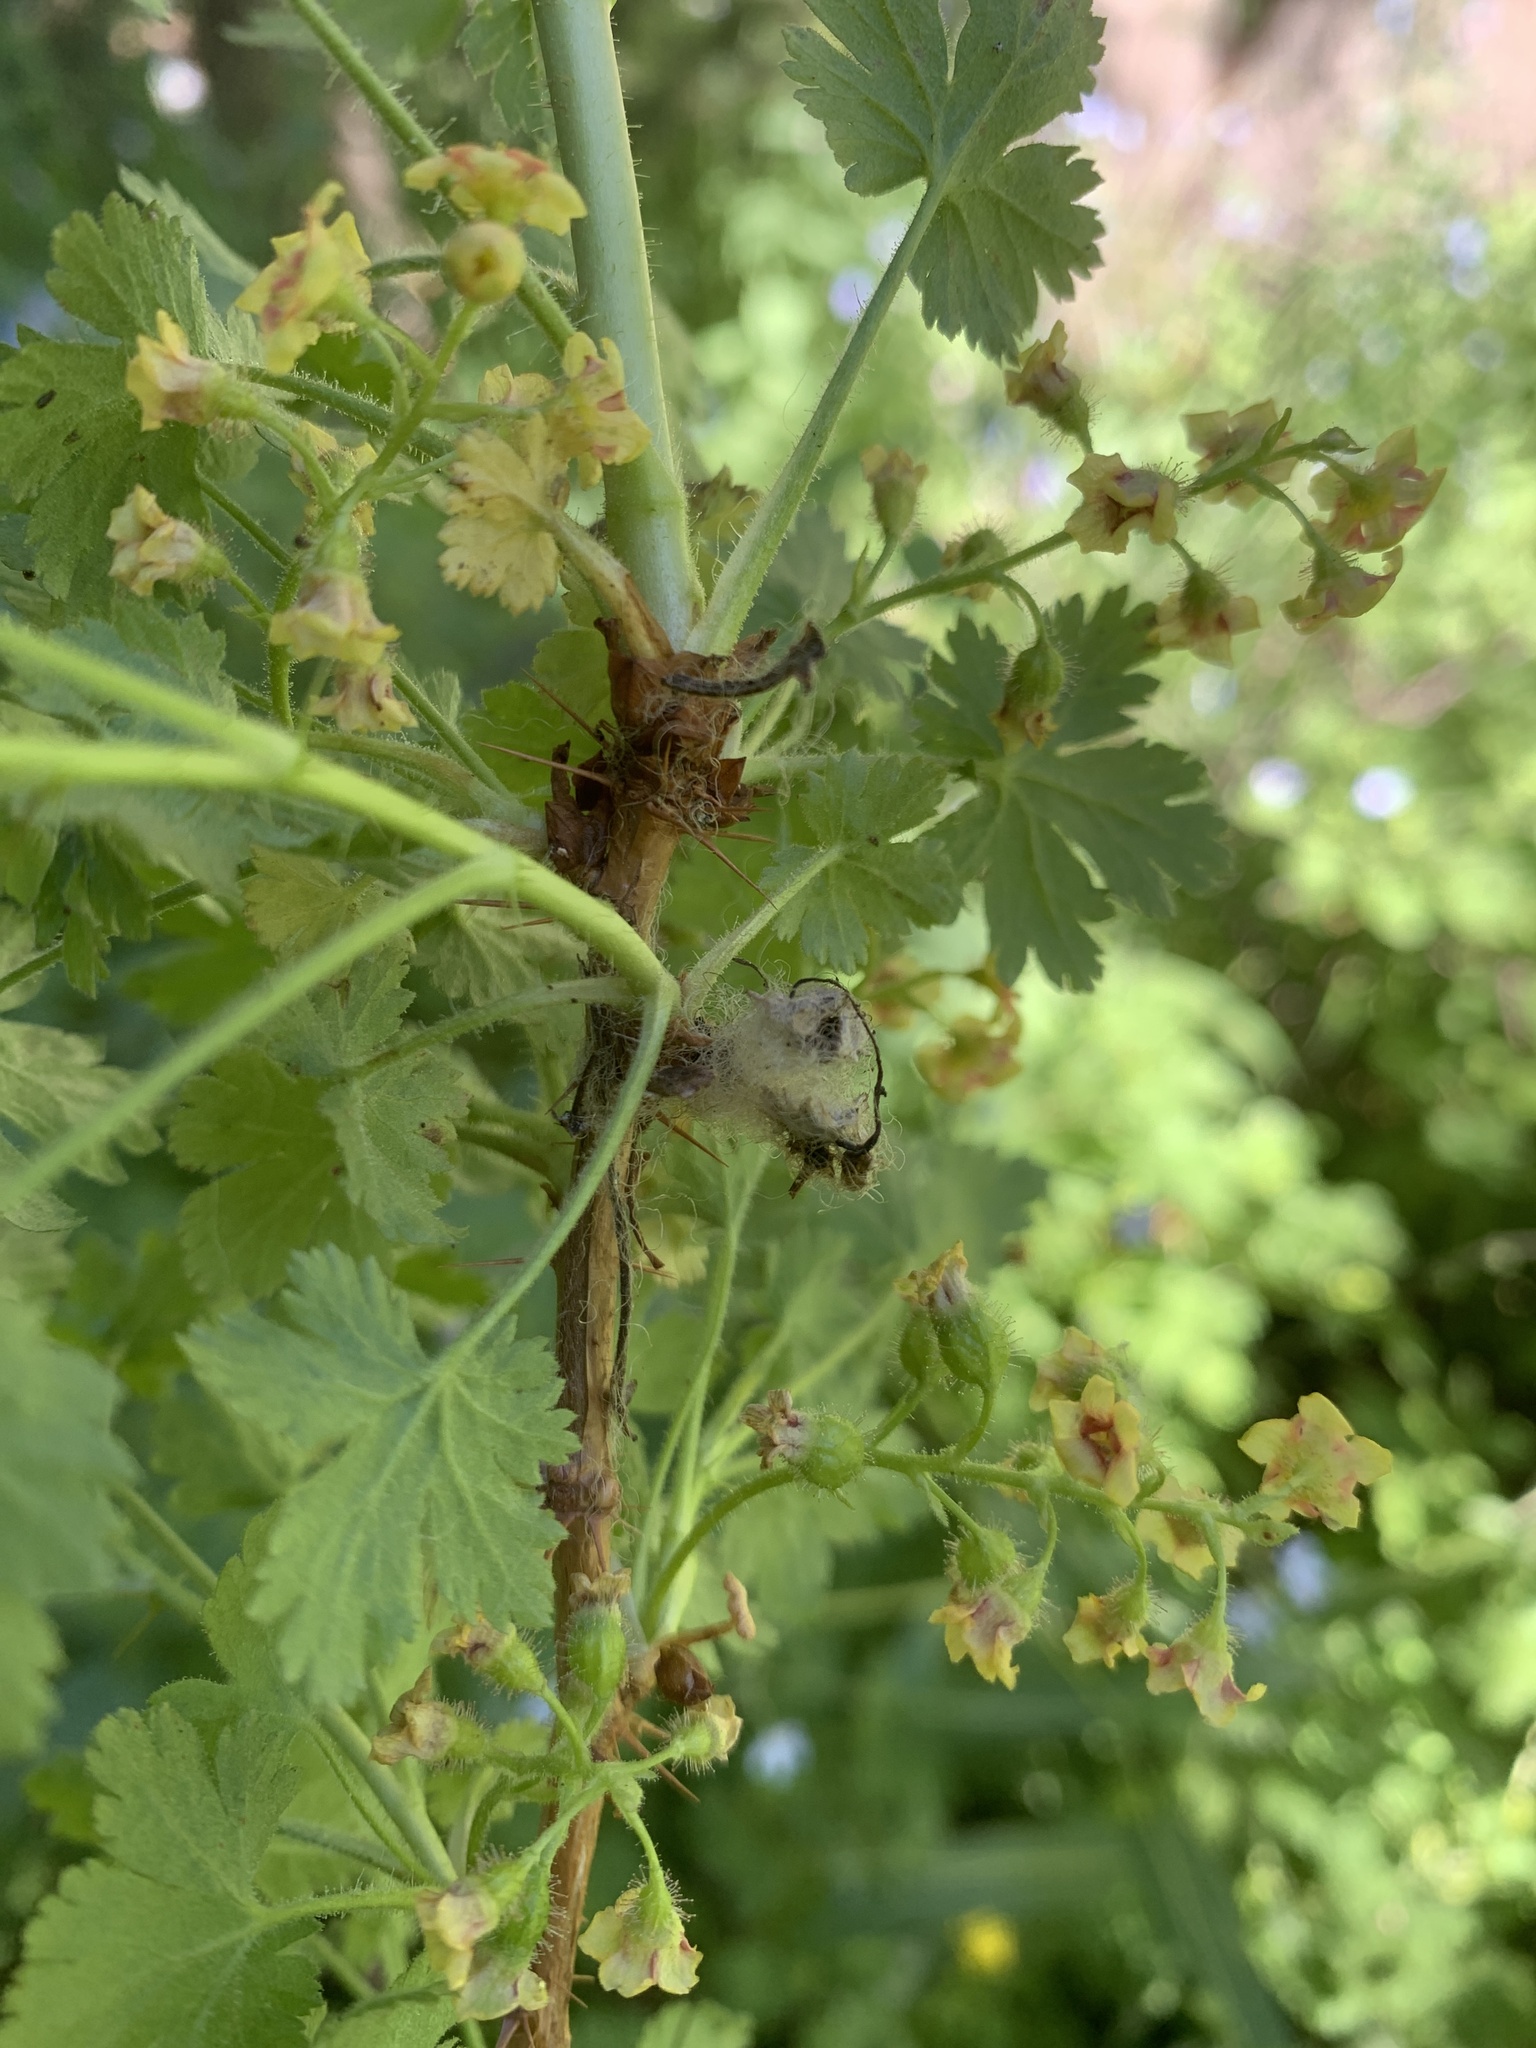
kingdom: Plantae
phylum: Tracheophyta
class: Magnoliopsida
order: Saxifragales
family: Grossulariaceae
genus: Ribes
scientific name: Ribes montigenum
